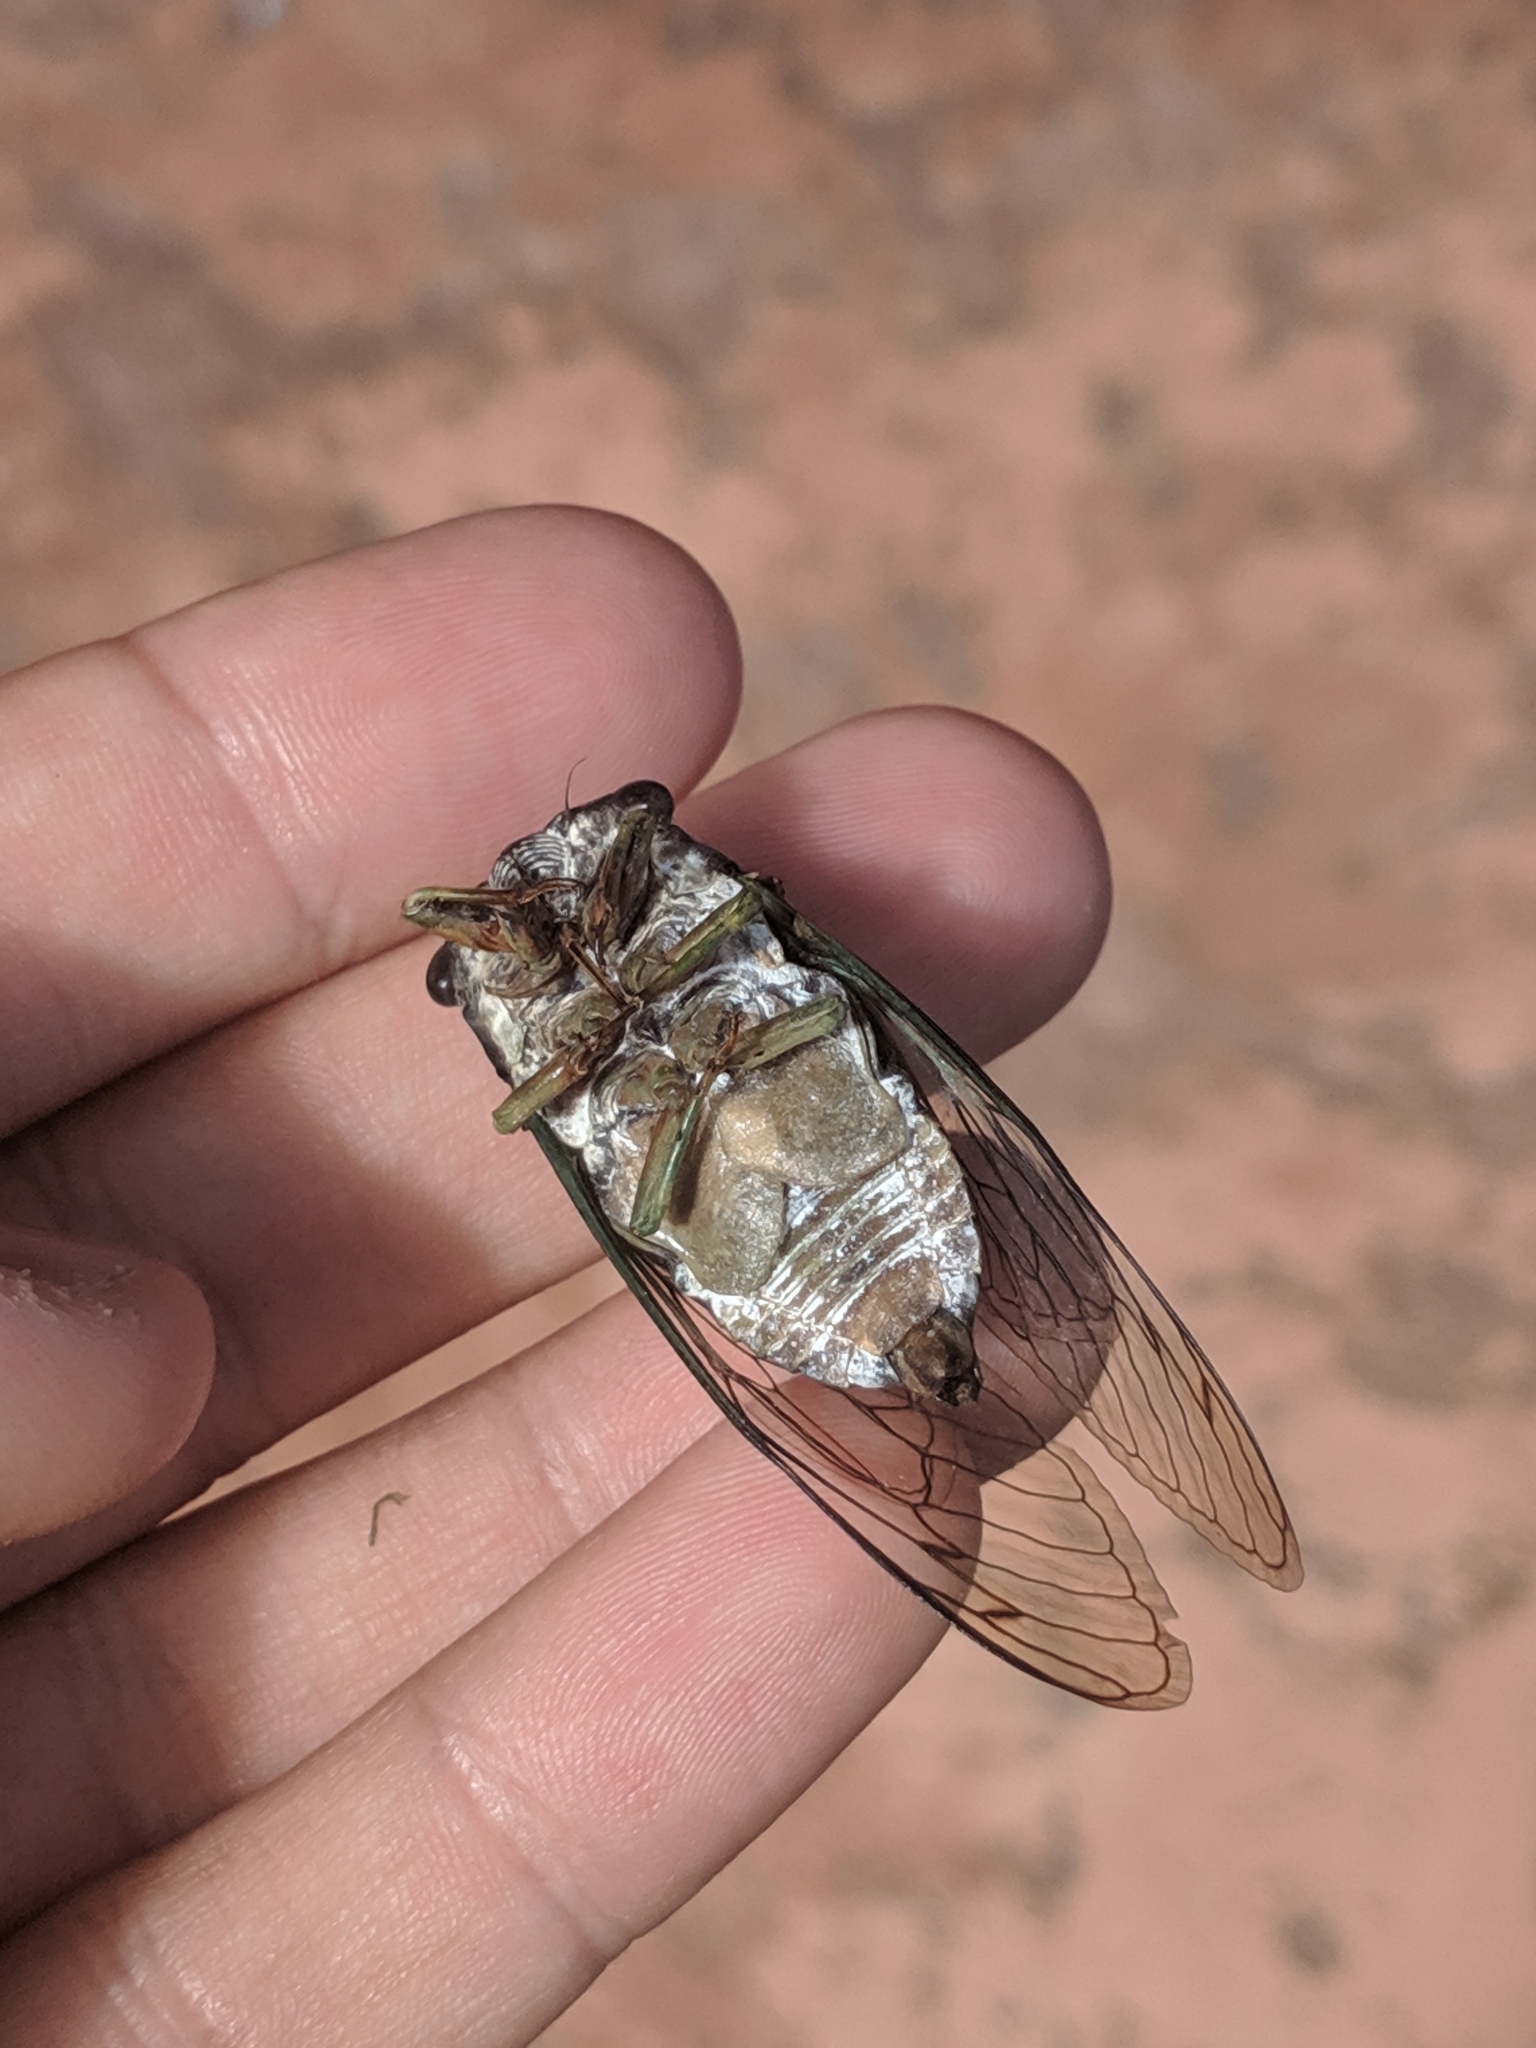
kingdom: Animalia
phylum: Arthropoda
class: Insecta
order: Hemiptera
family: Cicadidae
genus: Neotibicen
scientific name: Neotibicen tibicen
